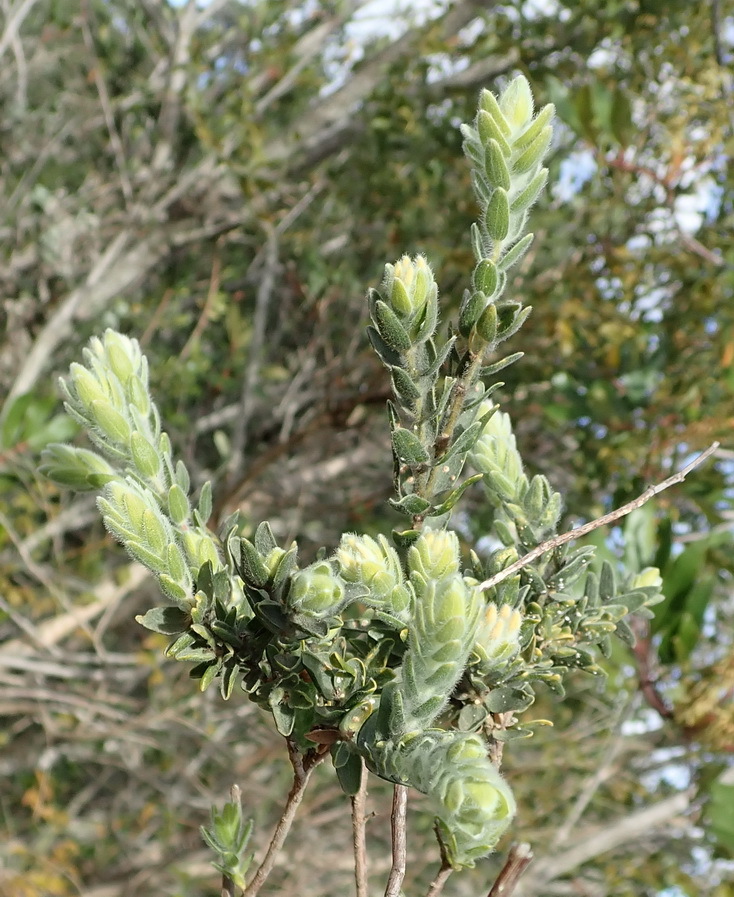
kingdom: Plantae
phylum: Tracheophyta
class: Magnoliopsida
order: Malvales
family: Thymelaeaceae
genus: Gnidia
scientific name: Gnidia
